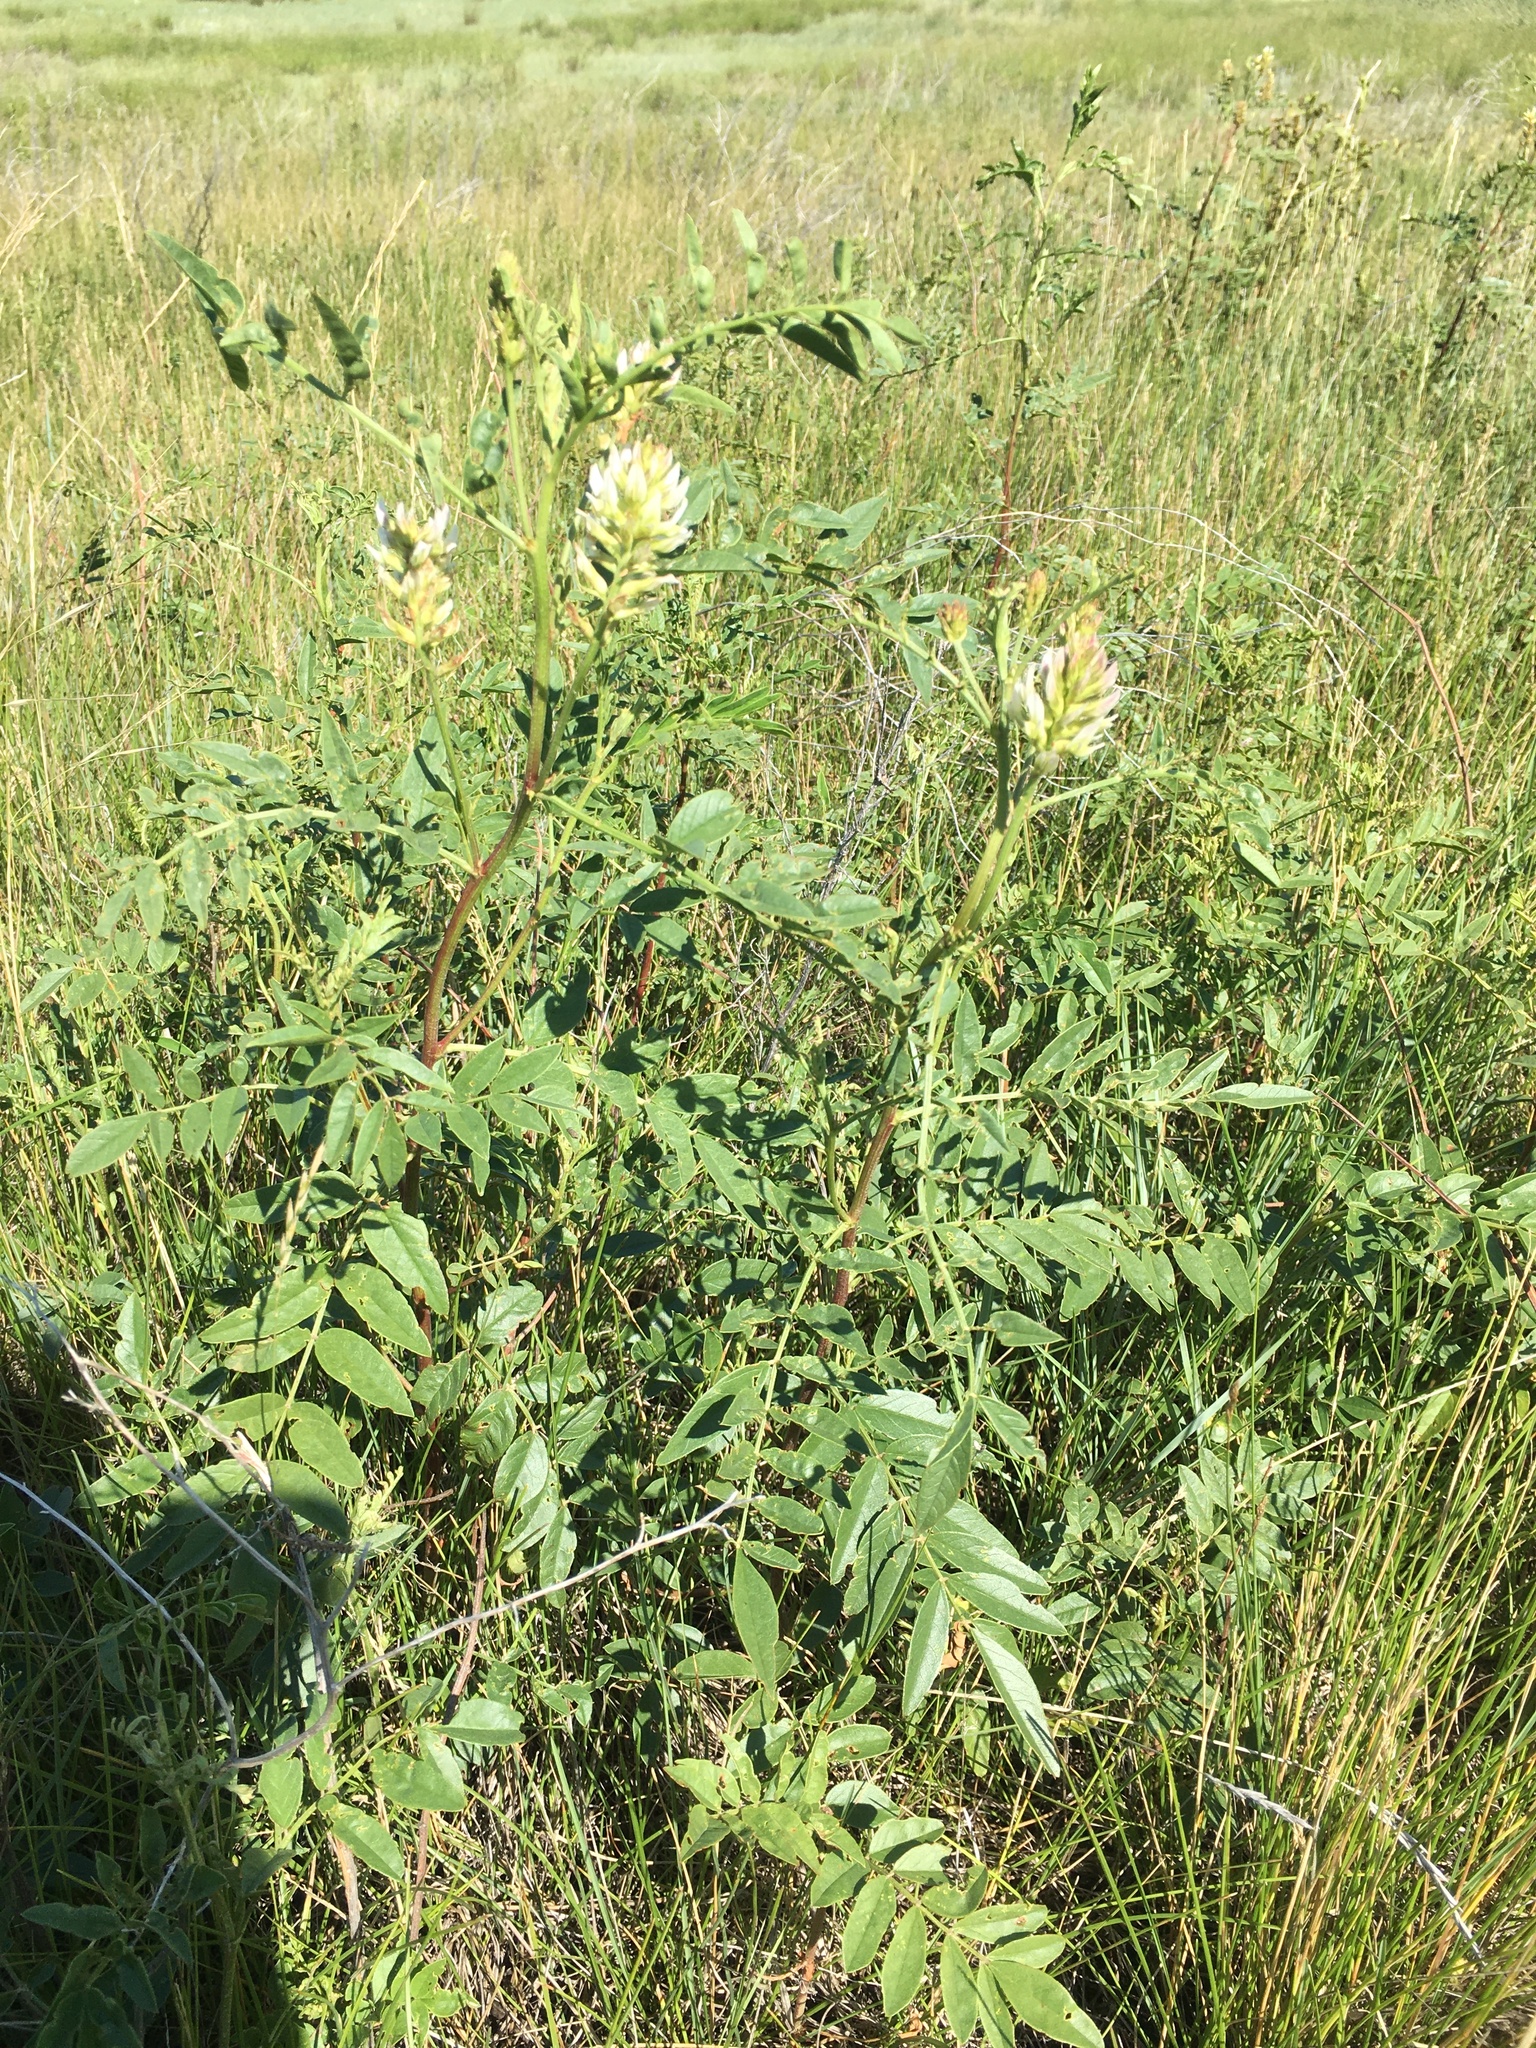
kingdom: Plantae
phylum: Tracheophyta
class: Magnoliopsida
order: Fabales
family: Fabaceae
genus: Glycyrrhiza
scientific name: Glycyrrhiza lepidota
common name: American liquorice
